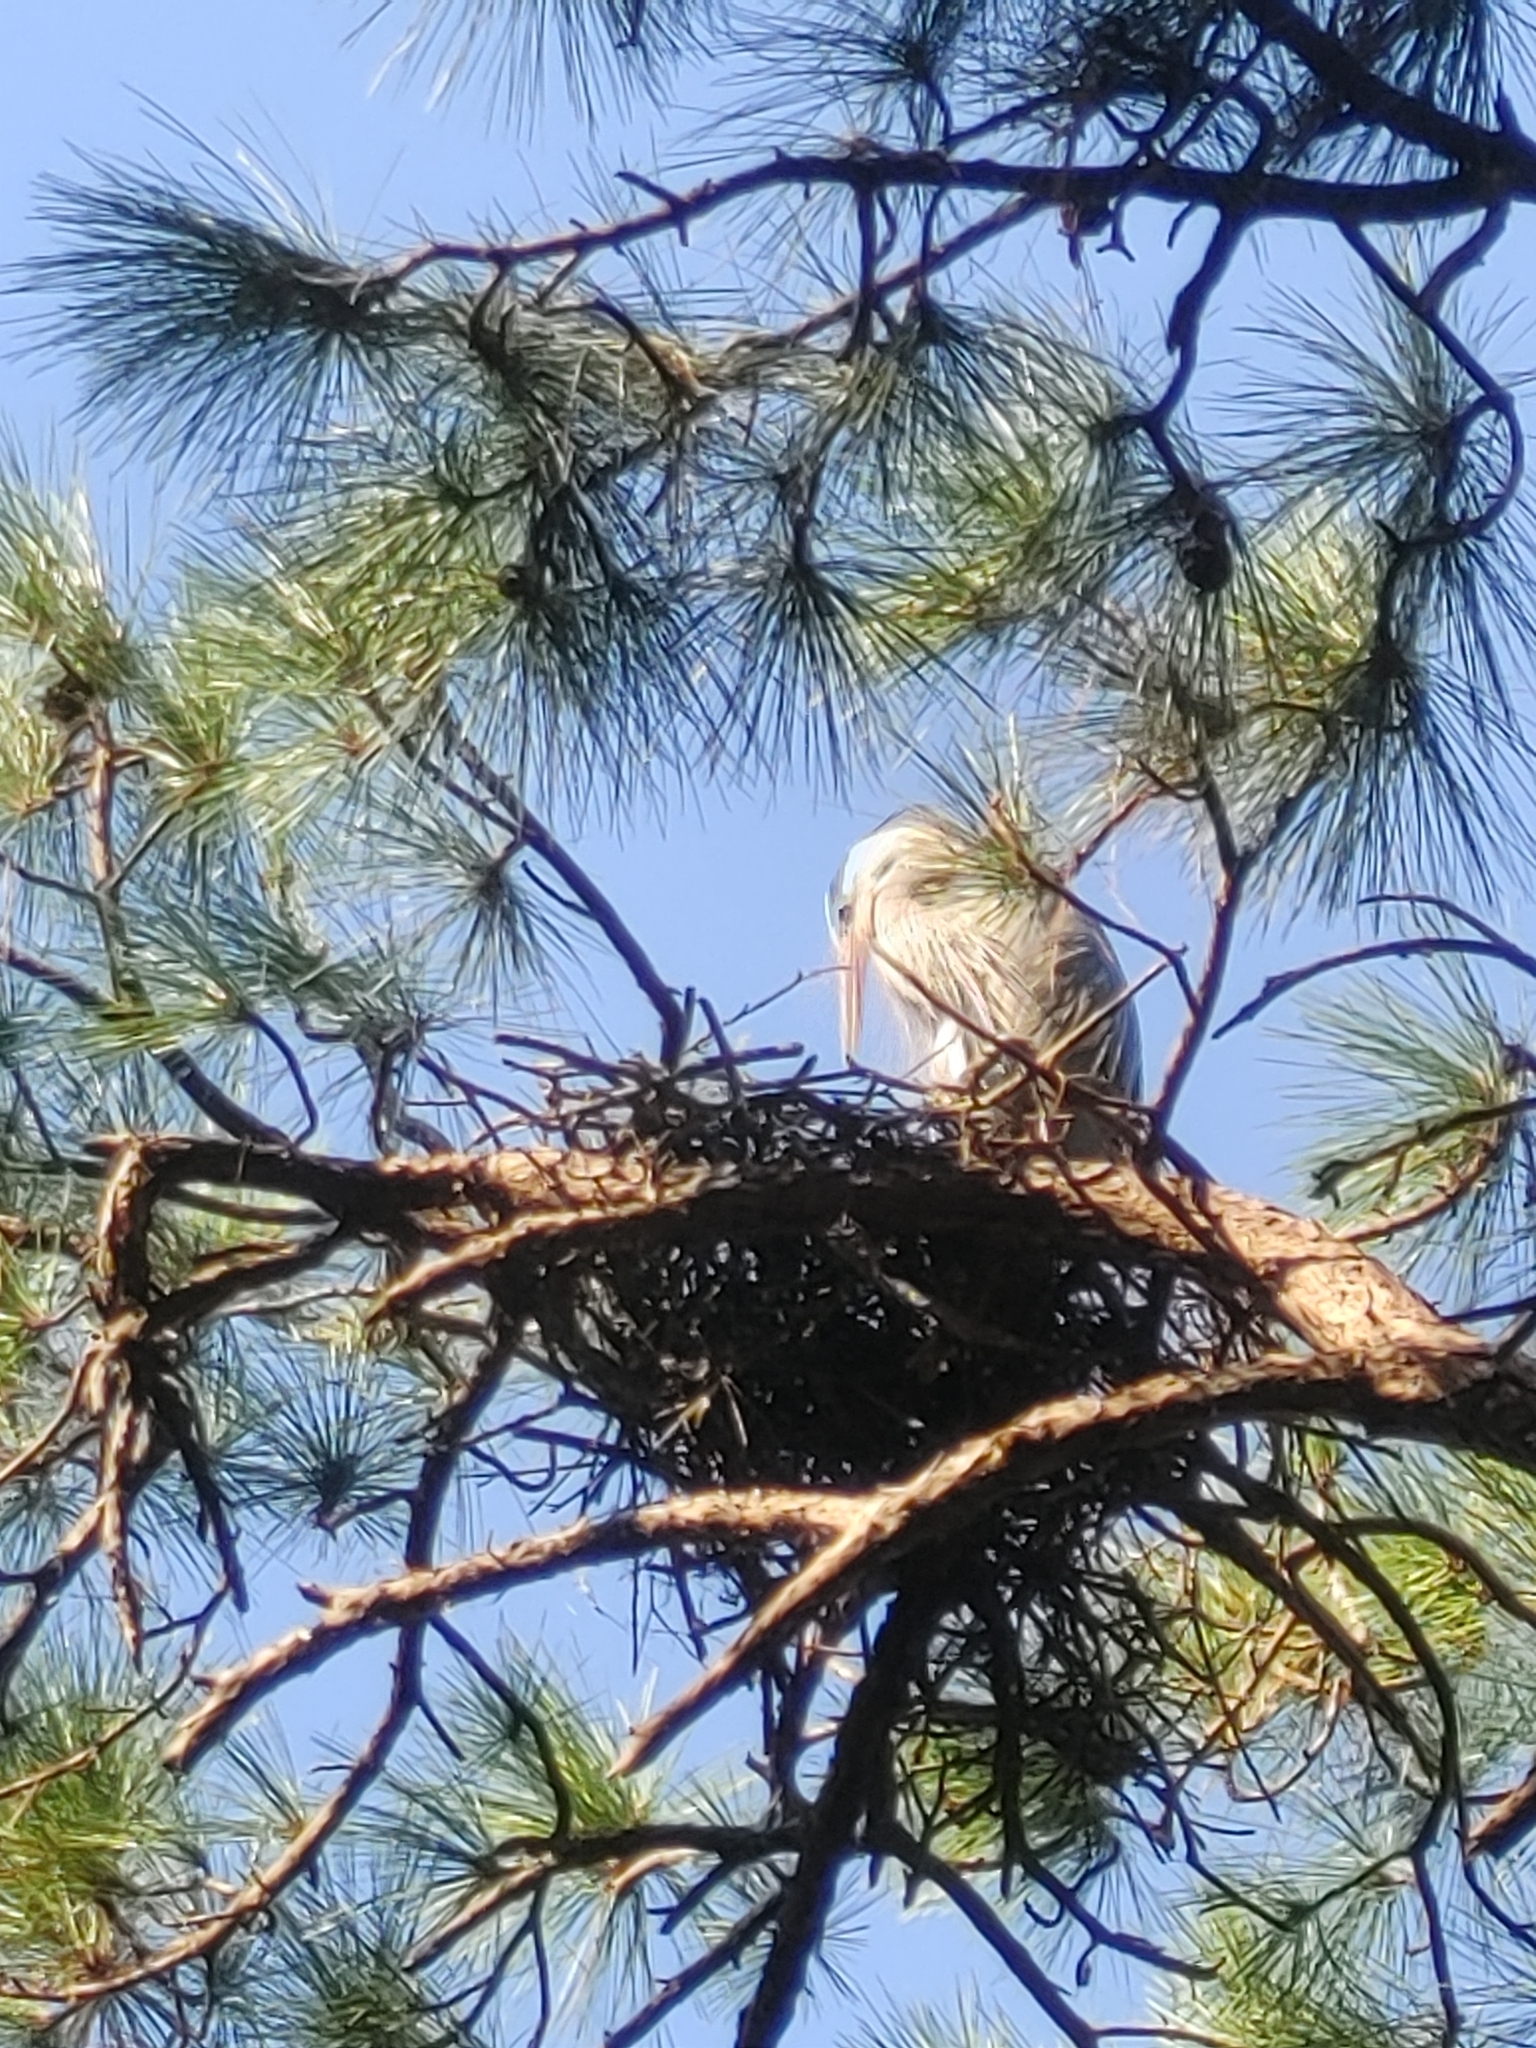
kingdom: Animalia
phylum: Chordata
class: Aves
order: Pelecaniformes
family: Ardeidae
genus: Ardea
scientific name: Ardea herodias
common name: Great blue heron
